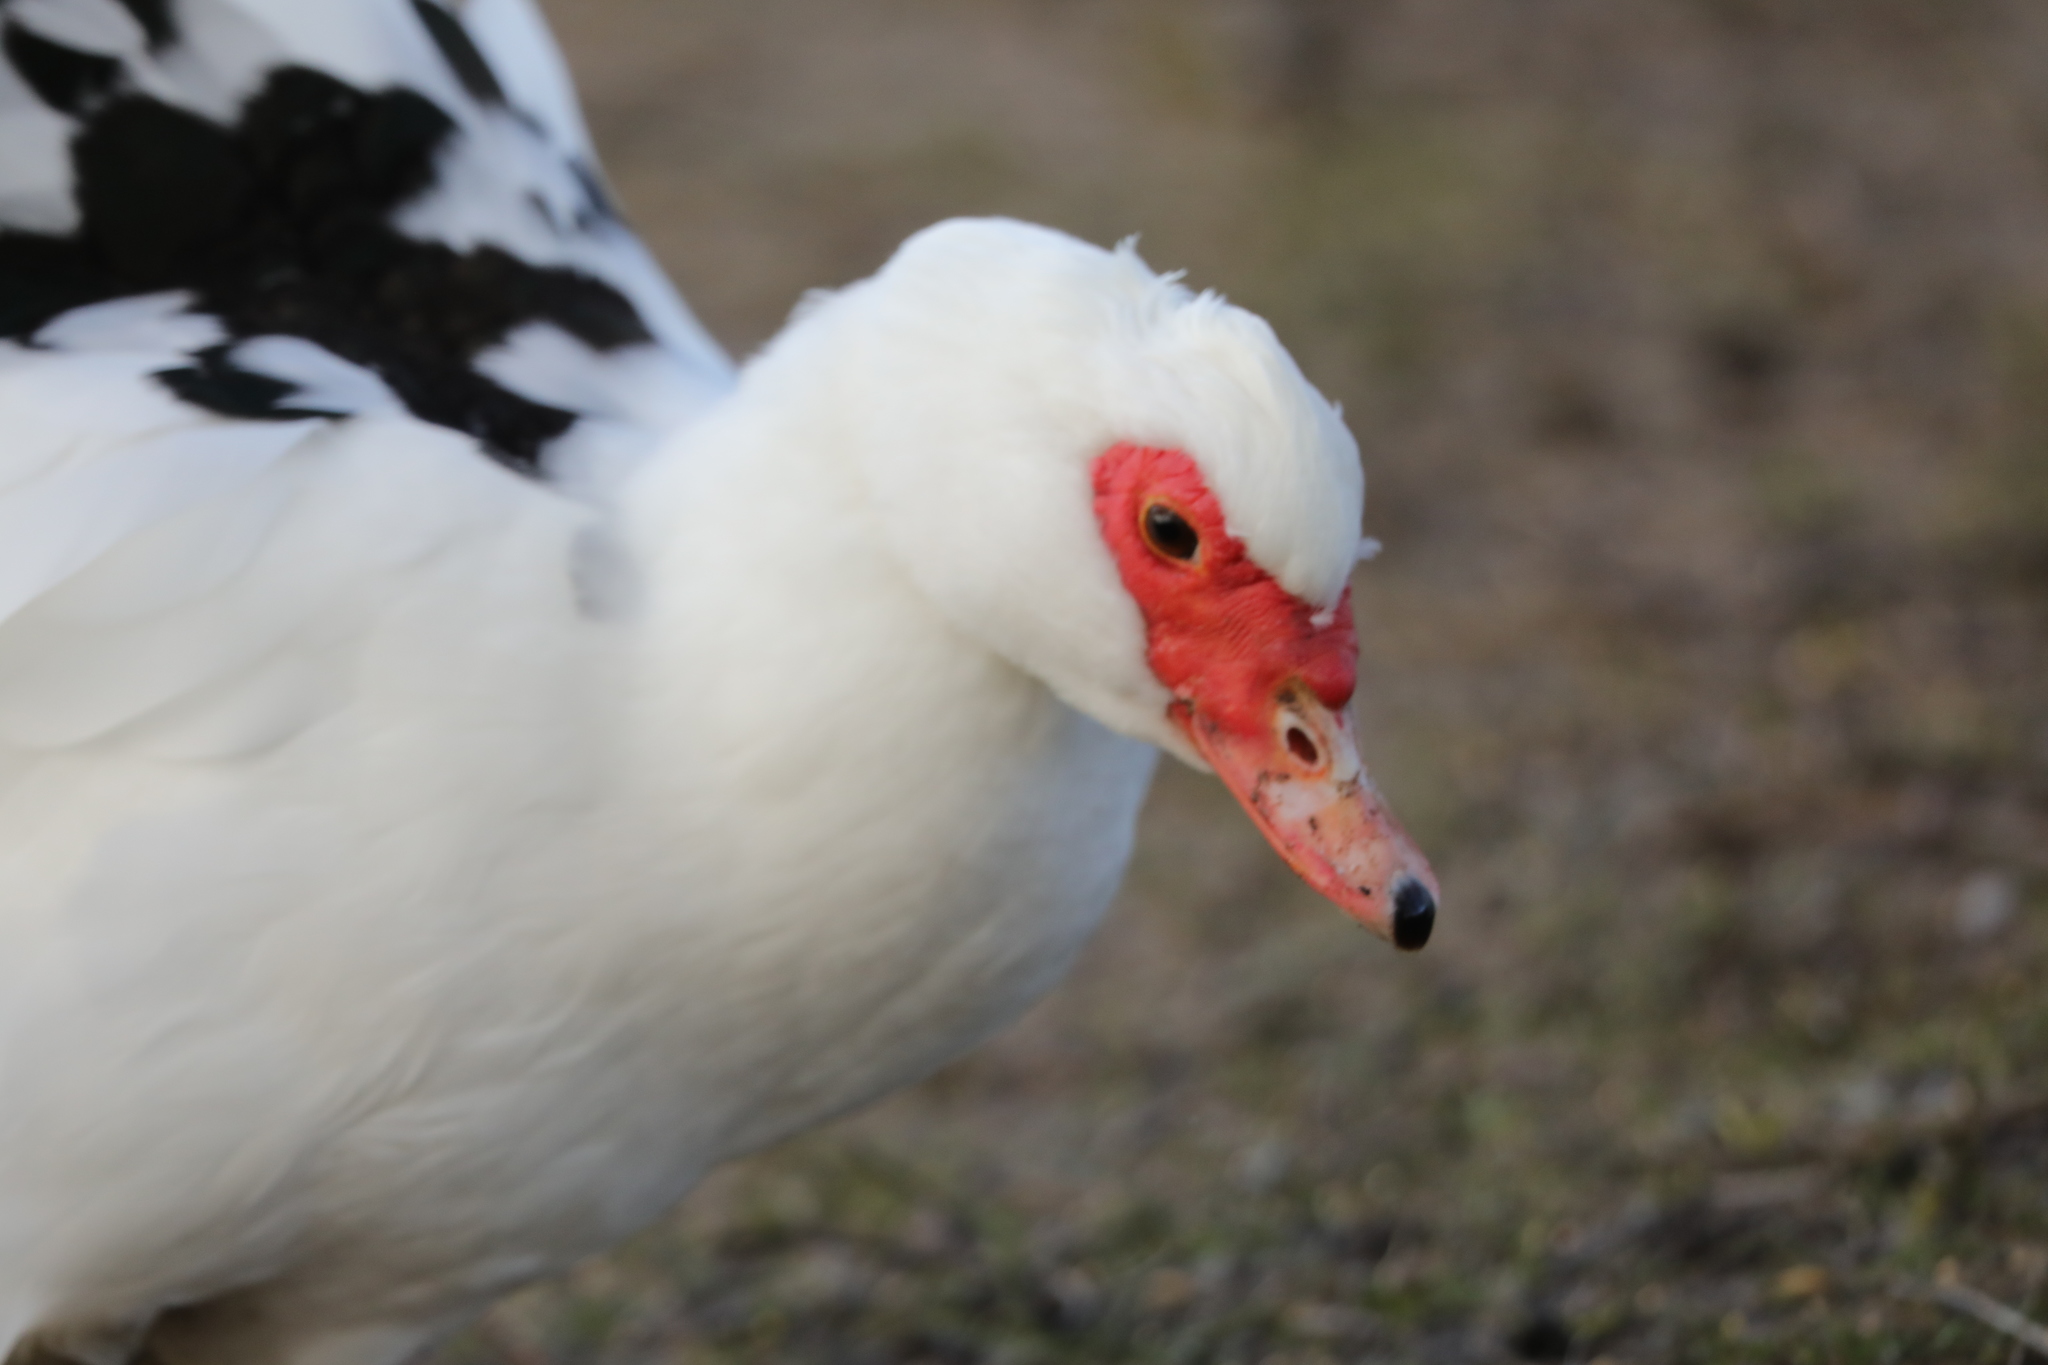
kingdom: Animalia
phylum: Chordata
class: Aves
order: Anseriformes
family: Anatidae
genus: Cairina
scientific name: Cairina moschata
